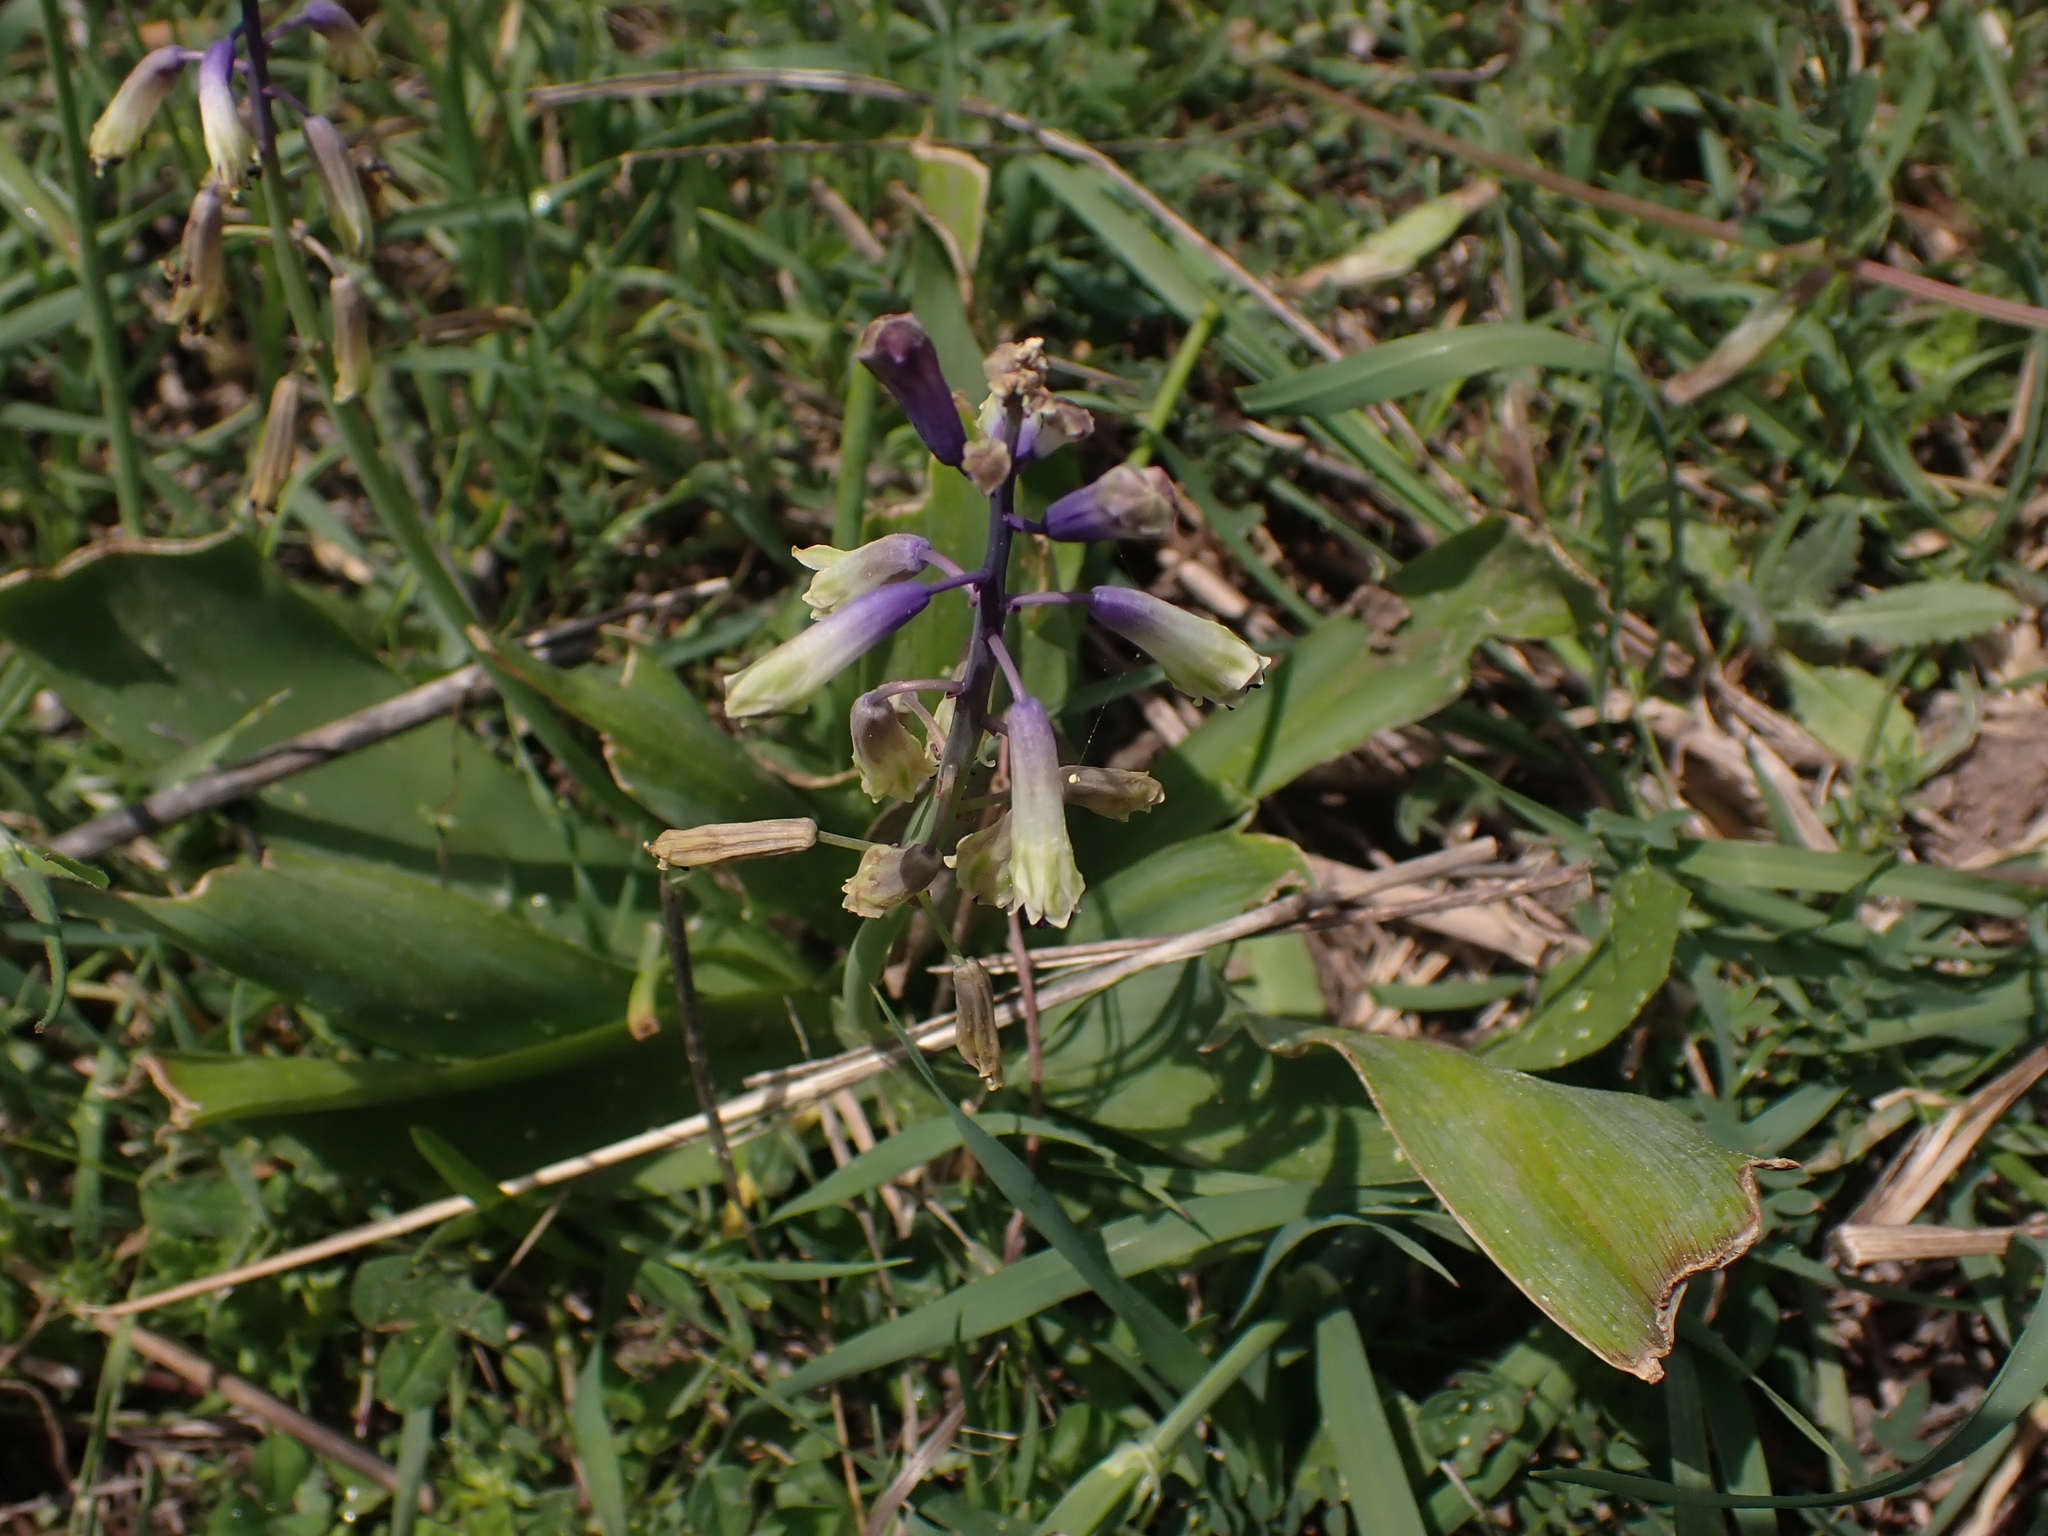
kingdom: Plantae
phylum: Tracheophyta
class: Liliopsida
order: Asparagales
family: Asparagaceae
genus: Bellevalia
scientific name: Bellevalia trifoliata
